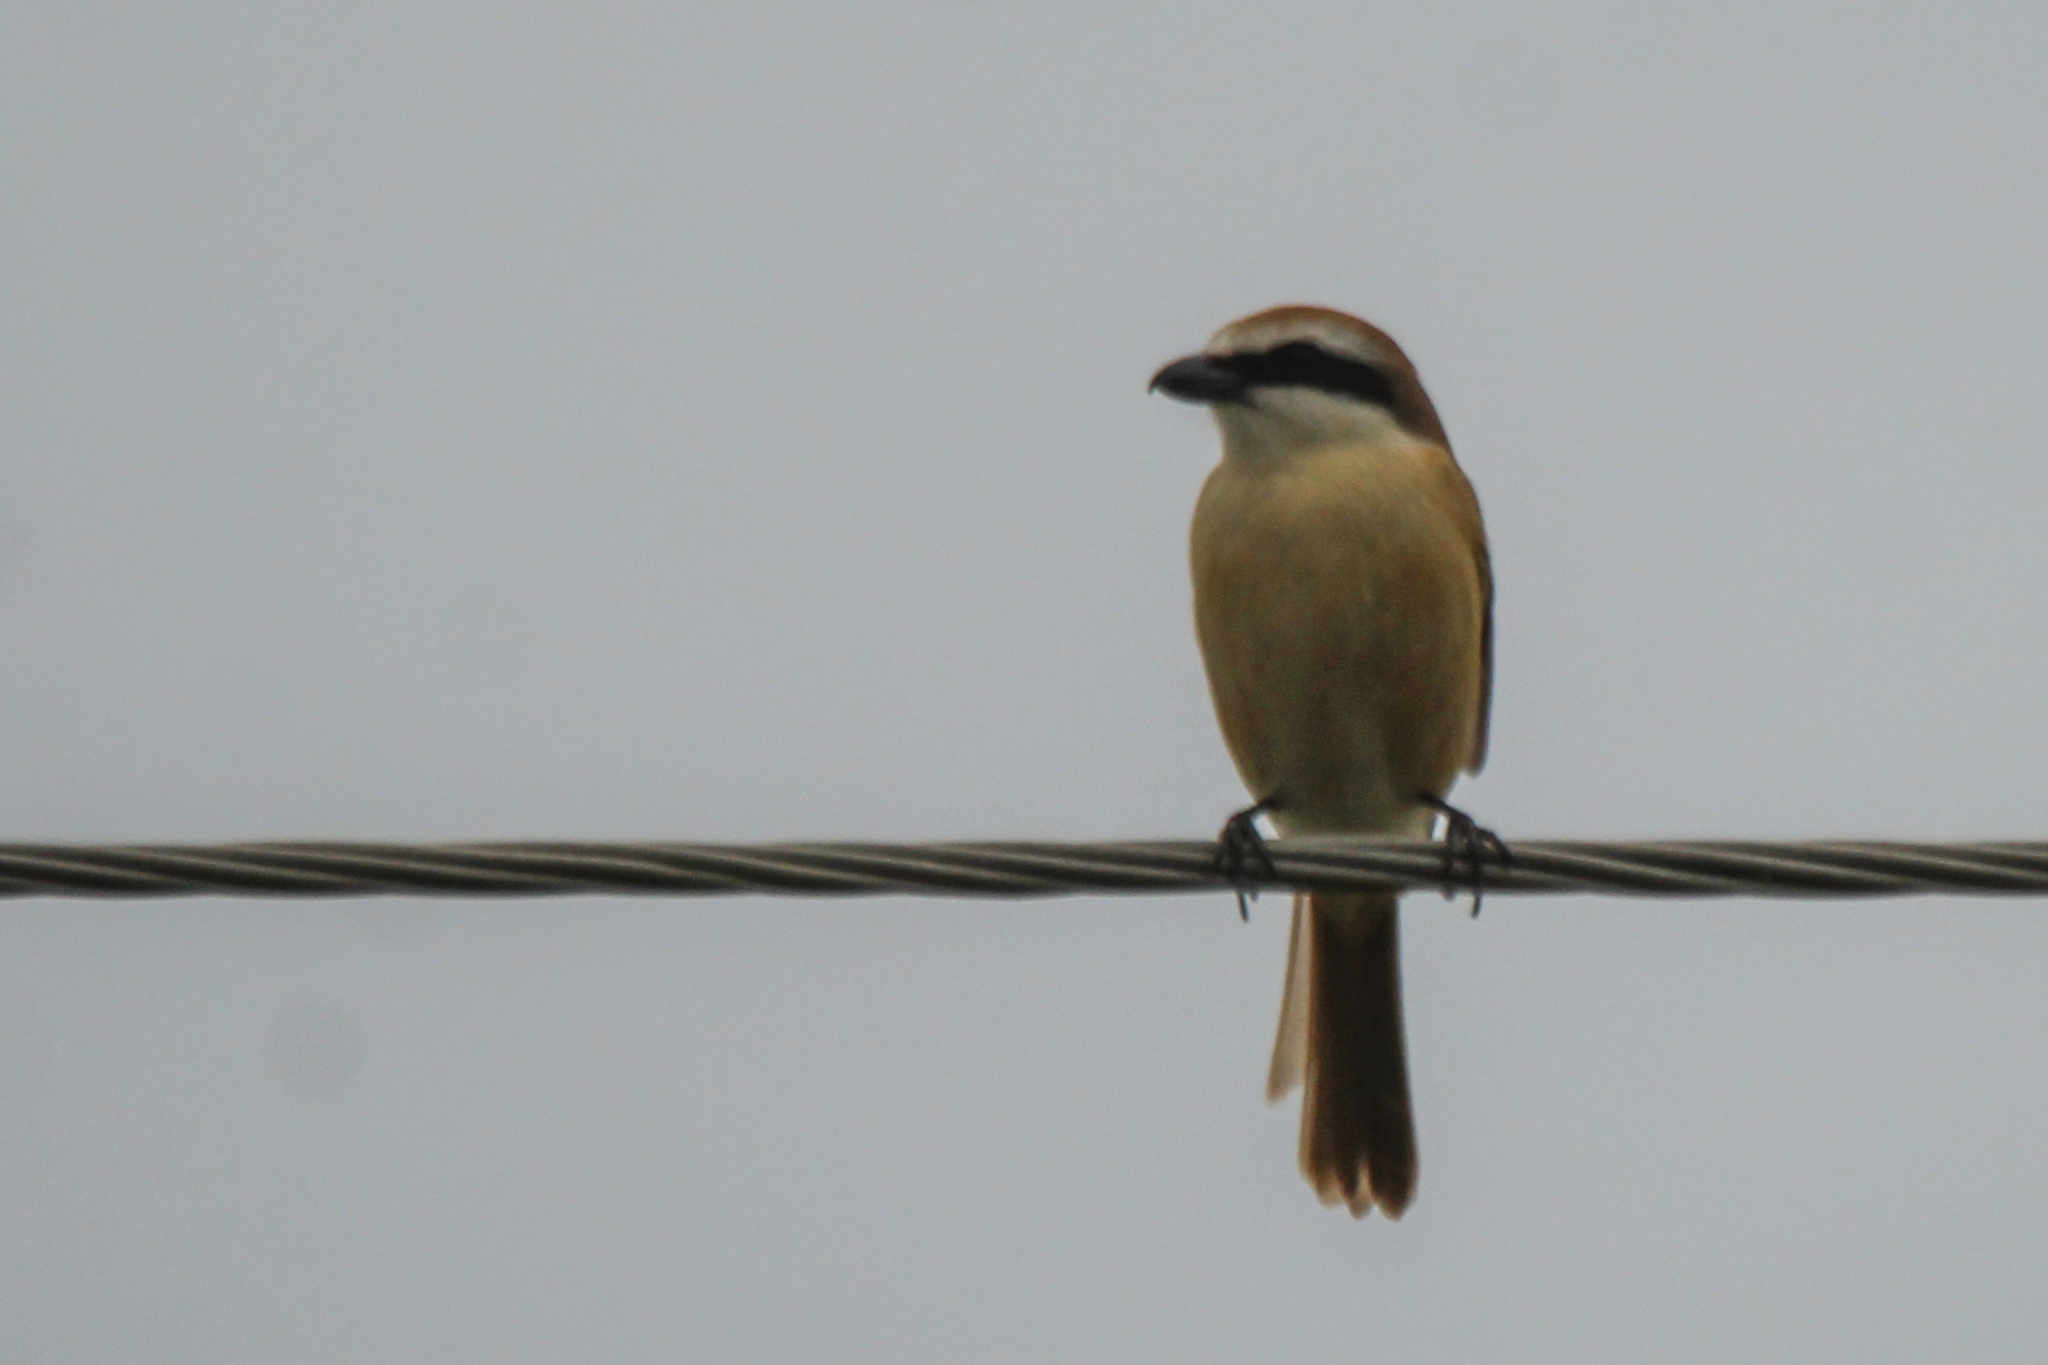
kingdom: Animalia
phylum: Chordata
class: Aves
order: Passeriformes
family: Laniidae
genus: Lanius
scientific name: Lanius cristatus
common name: Brown shrike
